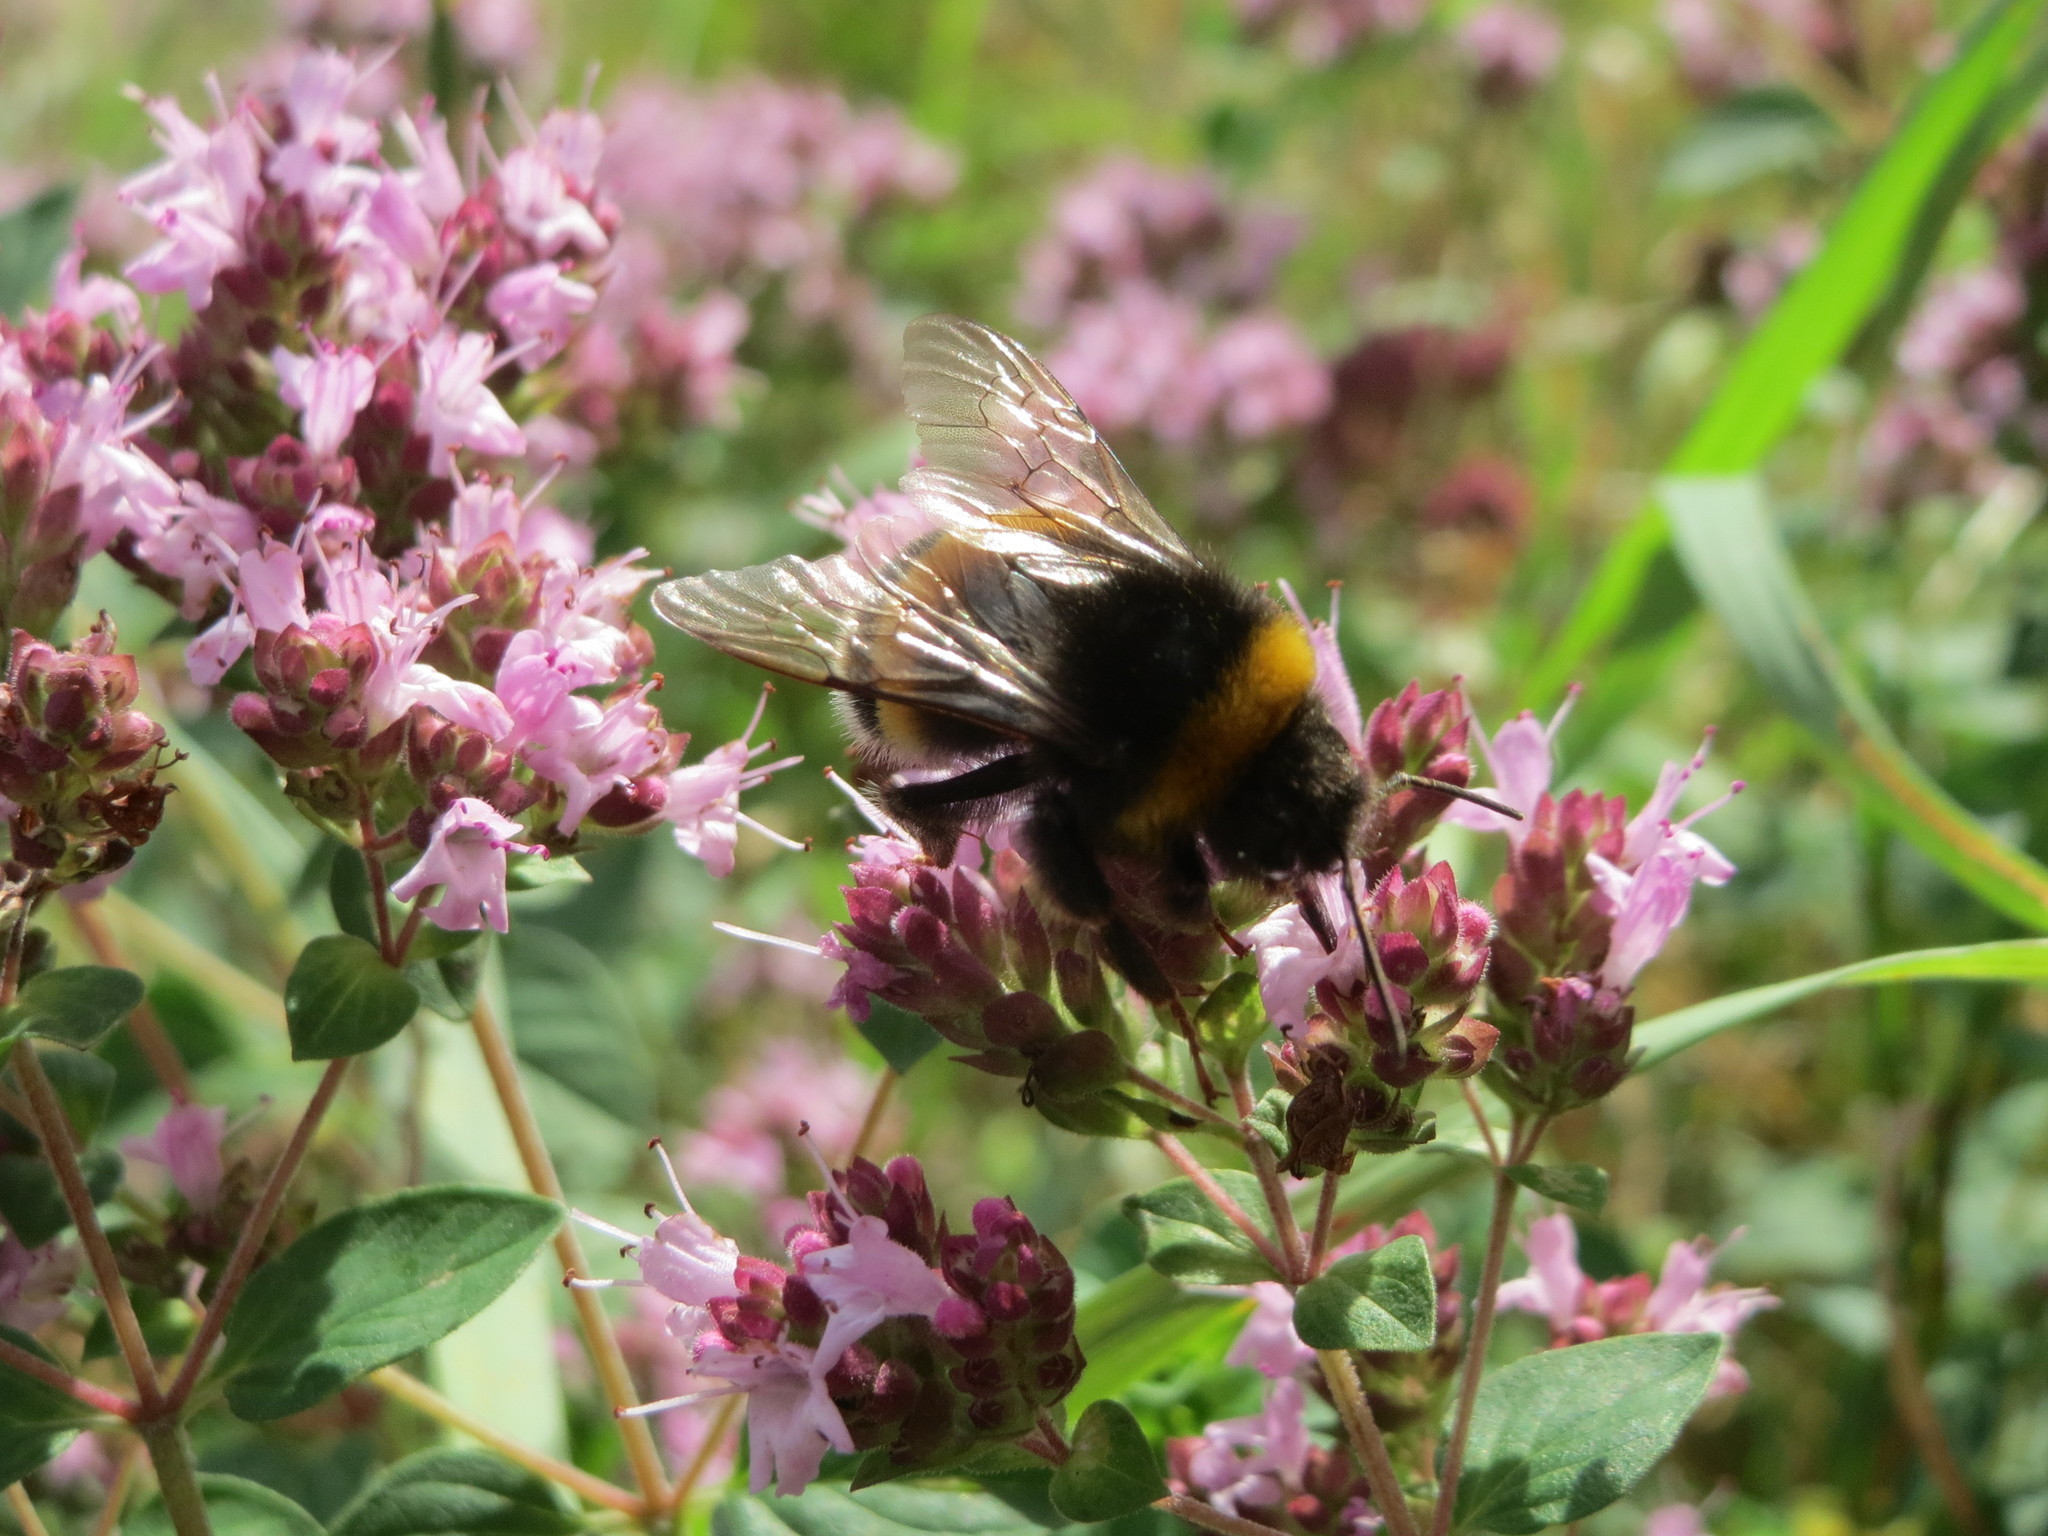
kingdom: Plantae
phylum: Tracheophyta
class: Magnoliopsida
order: Lamiales
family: Lamiaceae
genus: Origanum
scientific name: Origanum vulgare
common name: Wild marjoram
